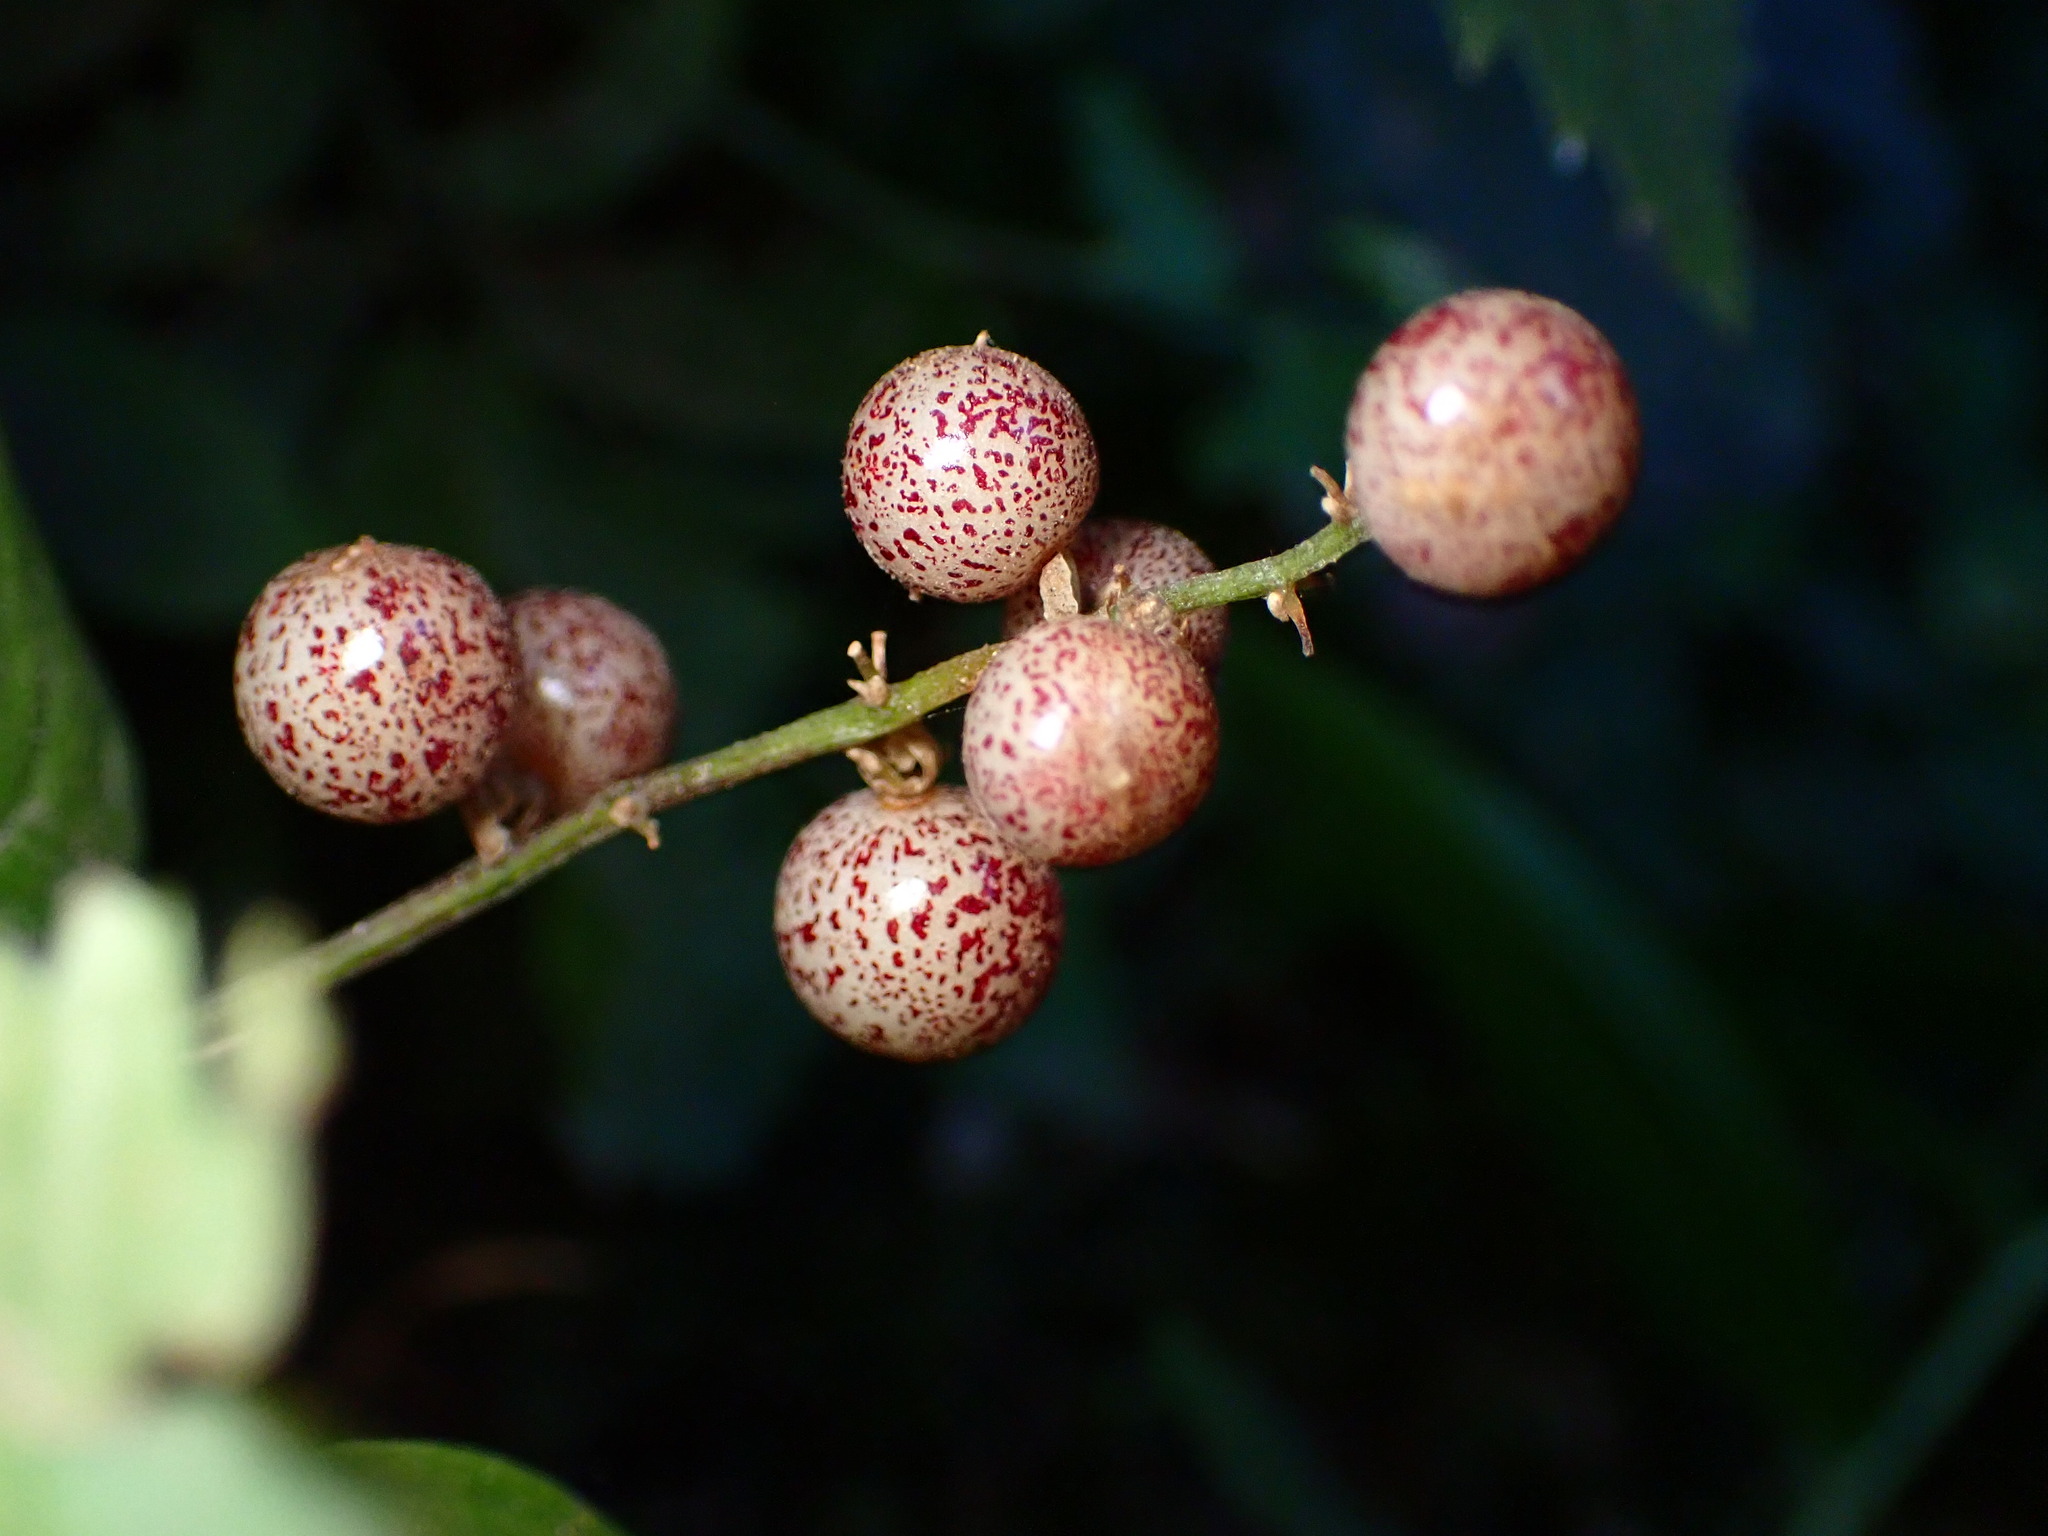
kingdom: Plantae
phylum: Tracheophyta
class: Liliopsida
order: Asparagales
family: Asparagaceae
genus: Maianthemum
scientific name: Maianthemum dilatatum
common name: False lily-of-the-valley
